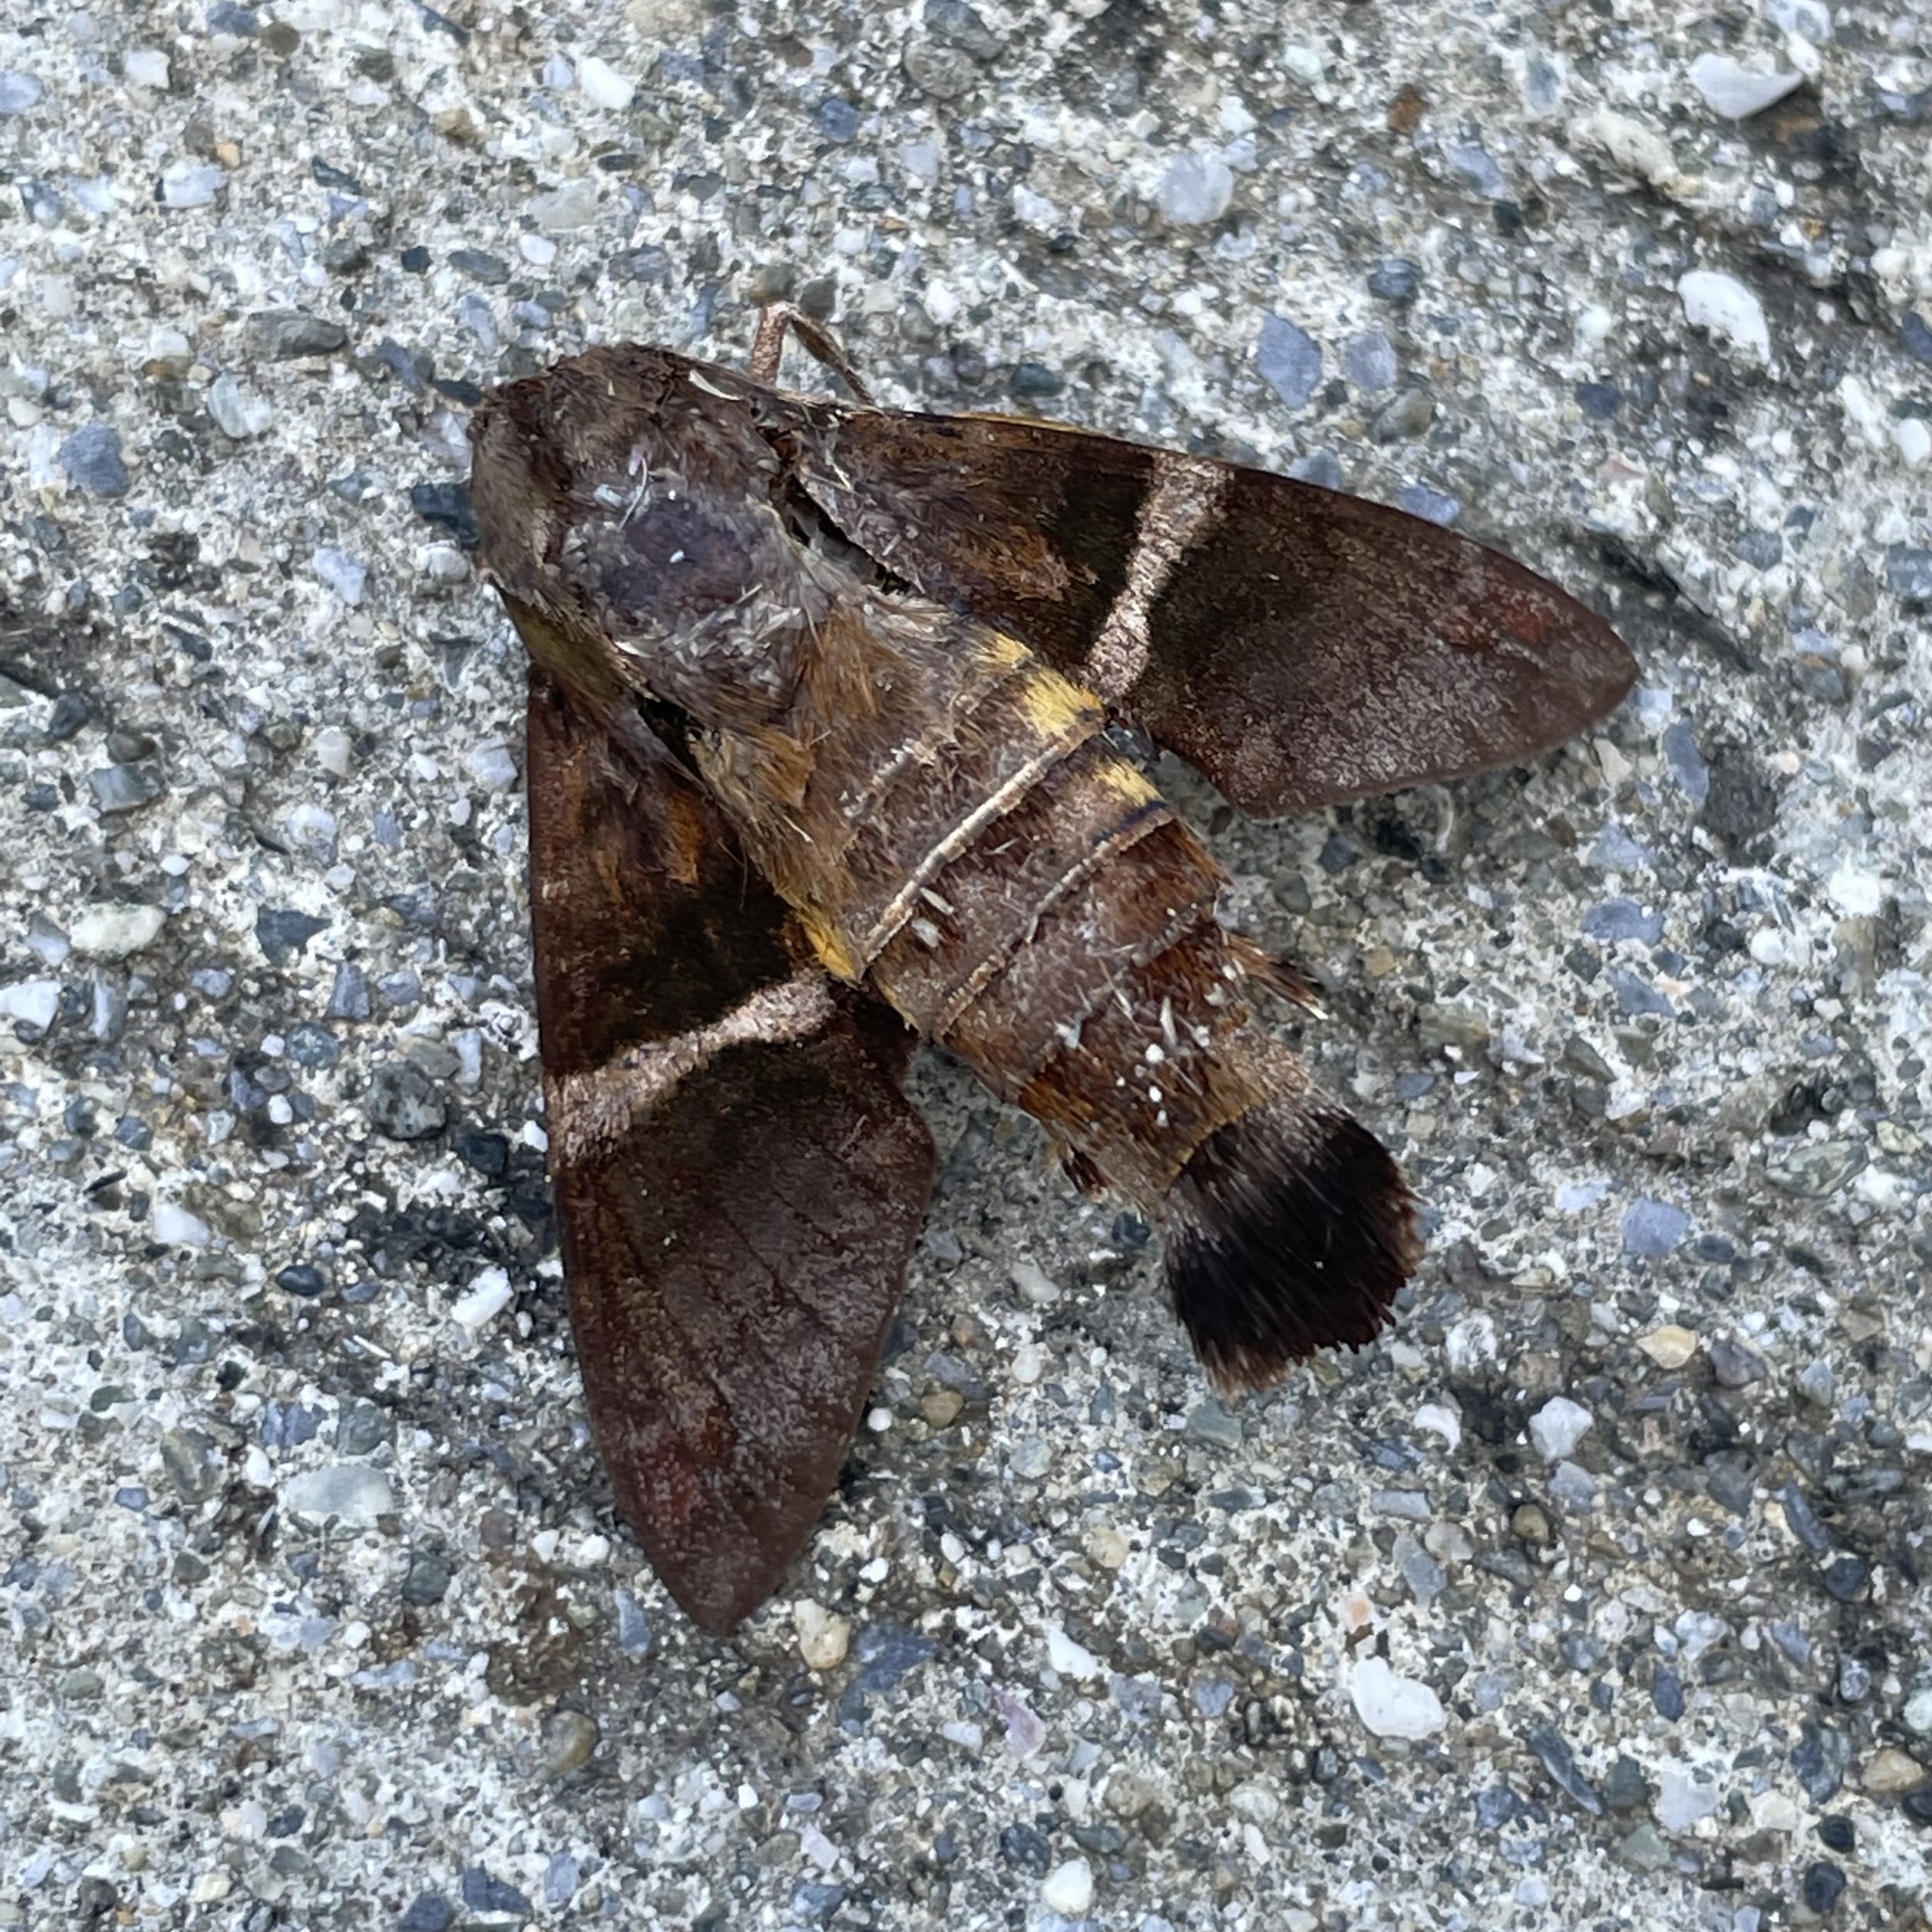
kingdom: Animalia
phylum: Arthropoda
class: Insecta
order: Lepidoptera
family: Sphingidae
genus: Macroglossum
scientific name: Macroglossum divergens
